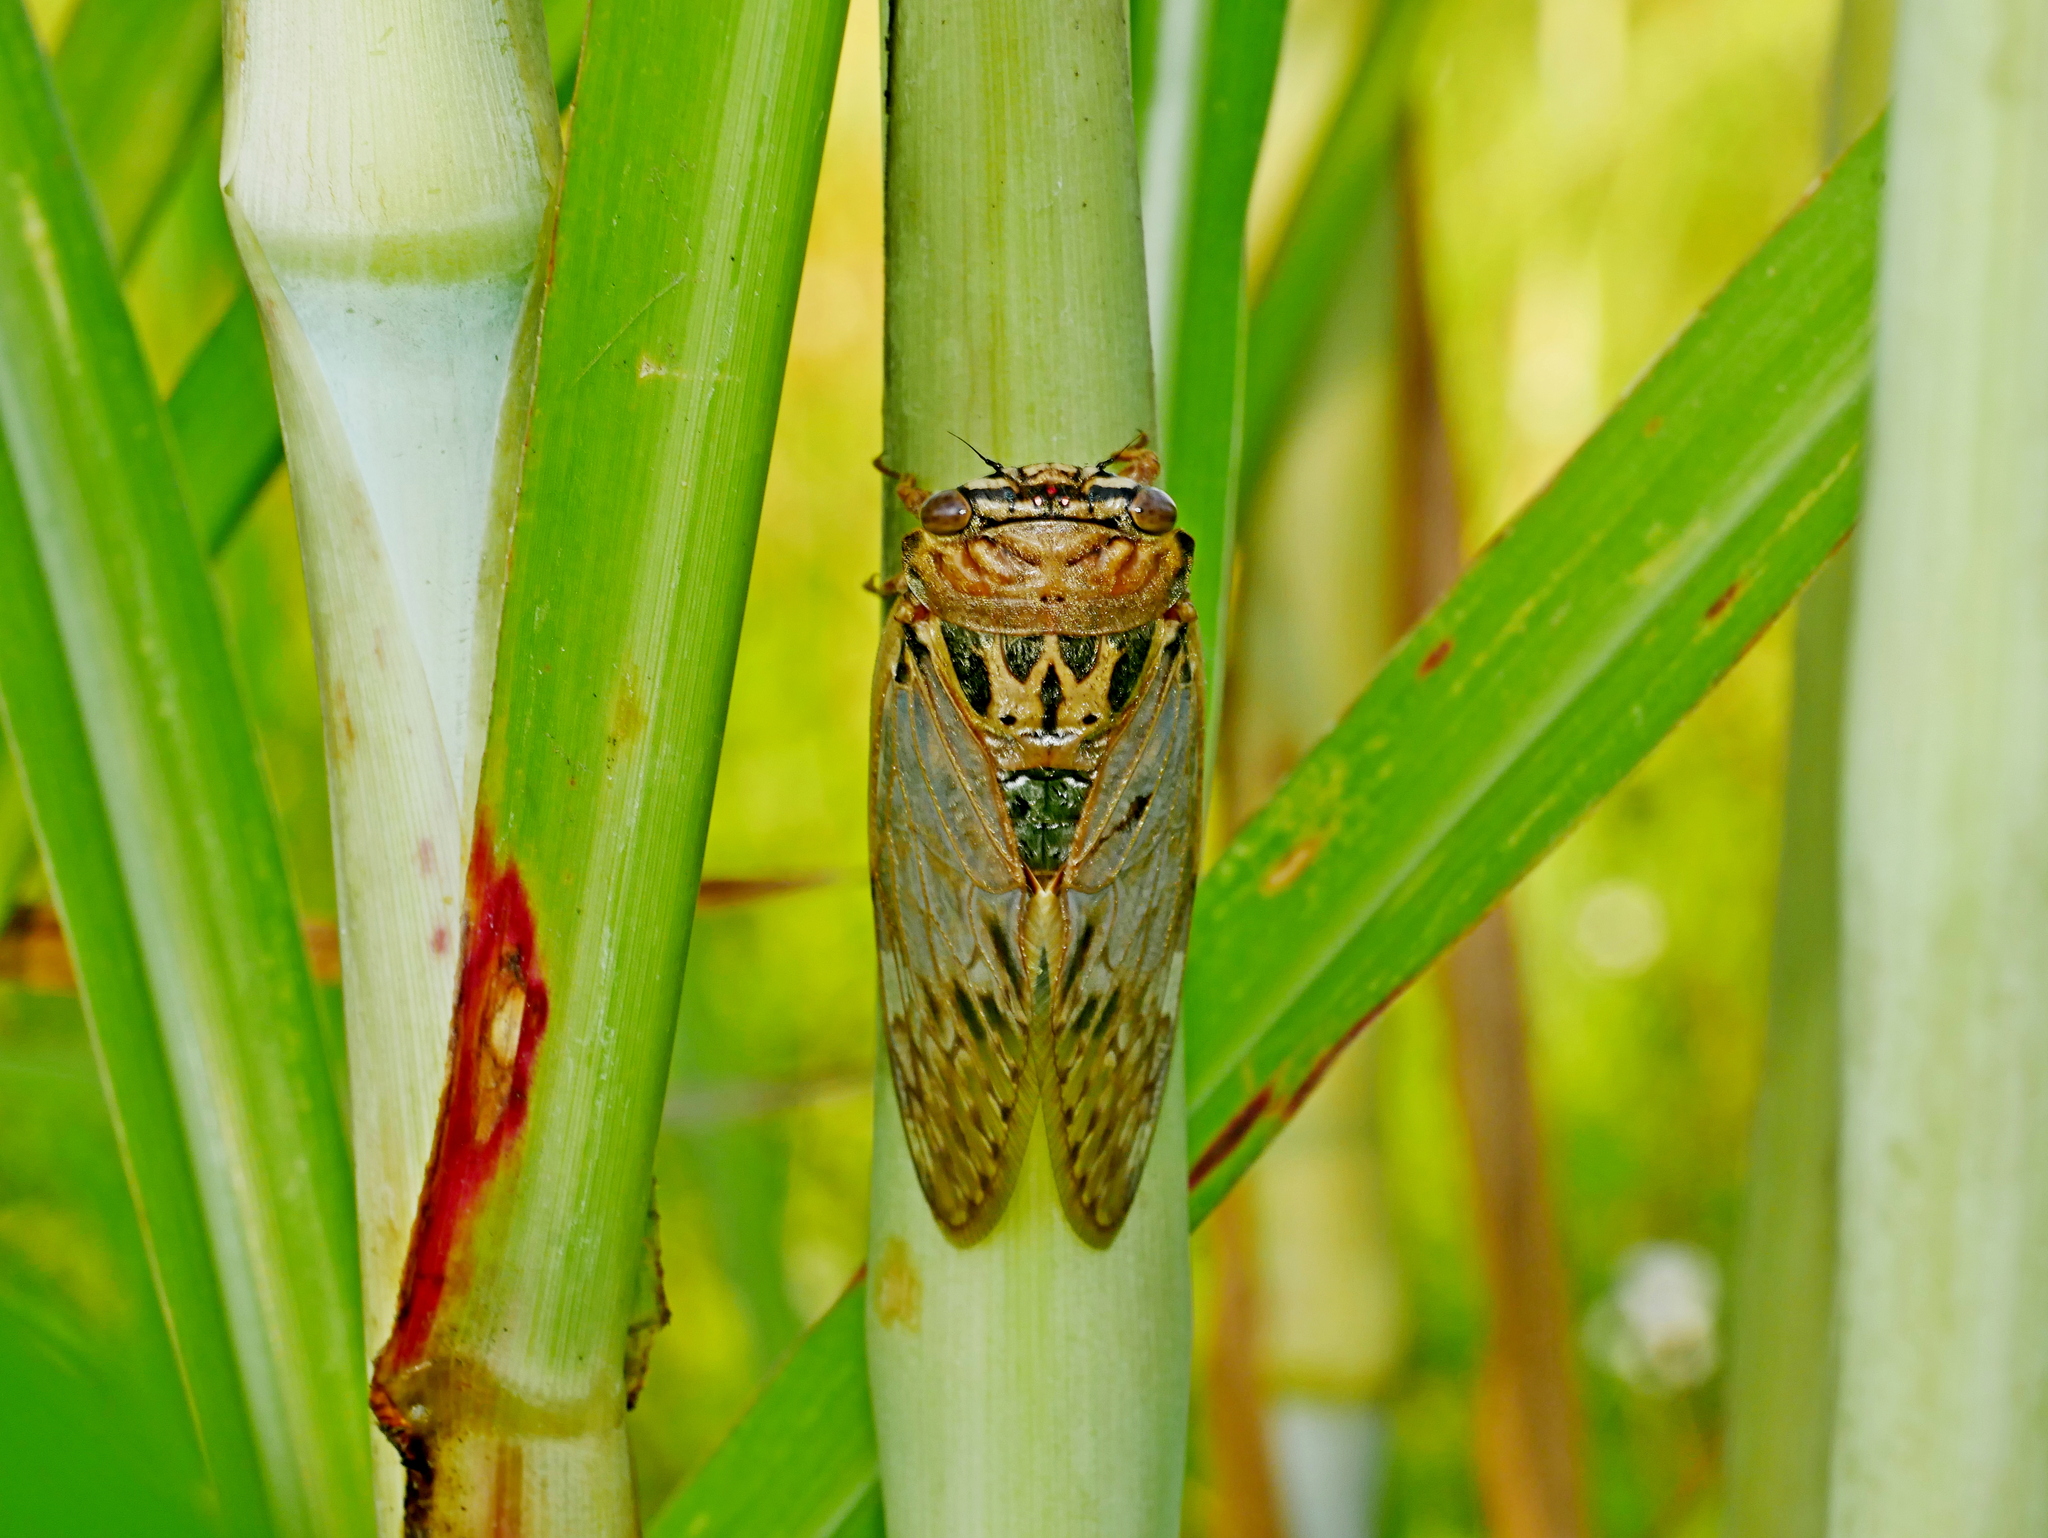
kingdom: Animalia
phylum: Arthropoda
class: Insecta
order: Hemiptera
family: Cicadidae
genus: Platypleura
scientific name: Platypleura hilpa
